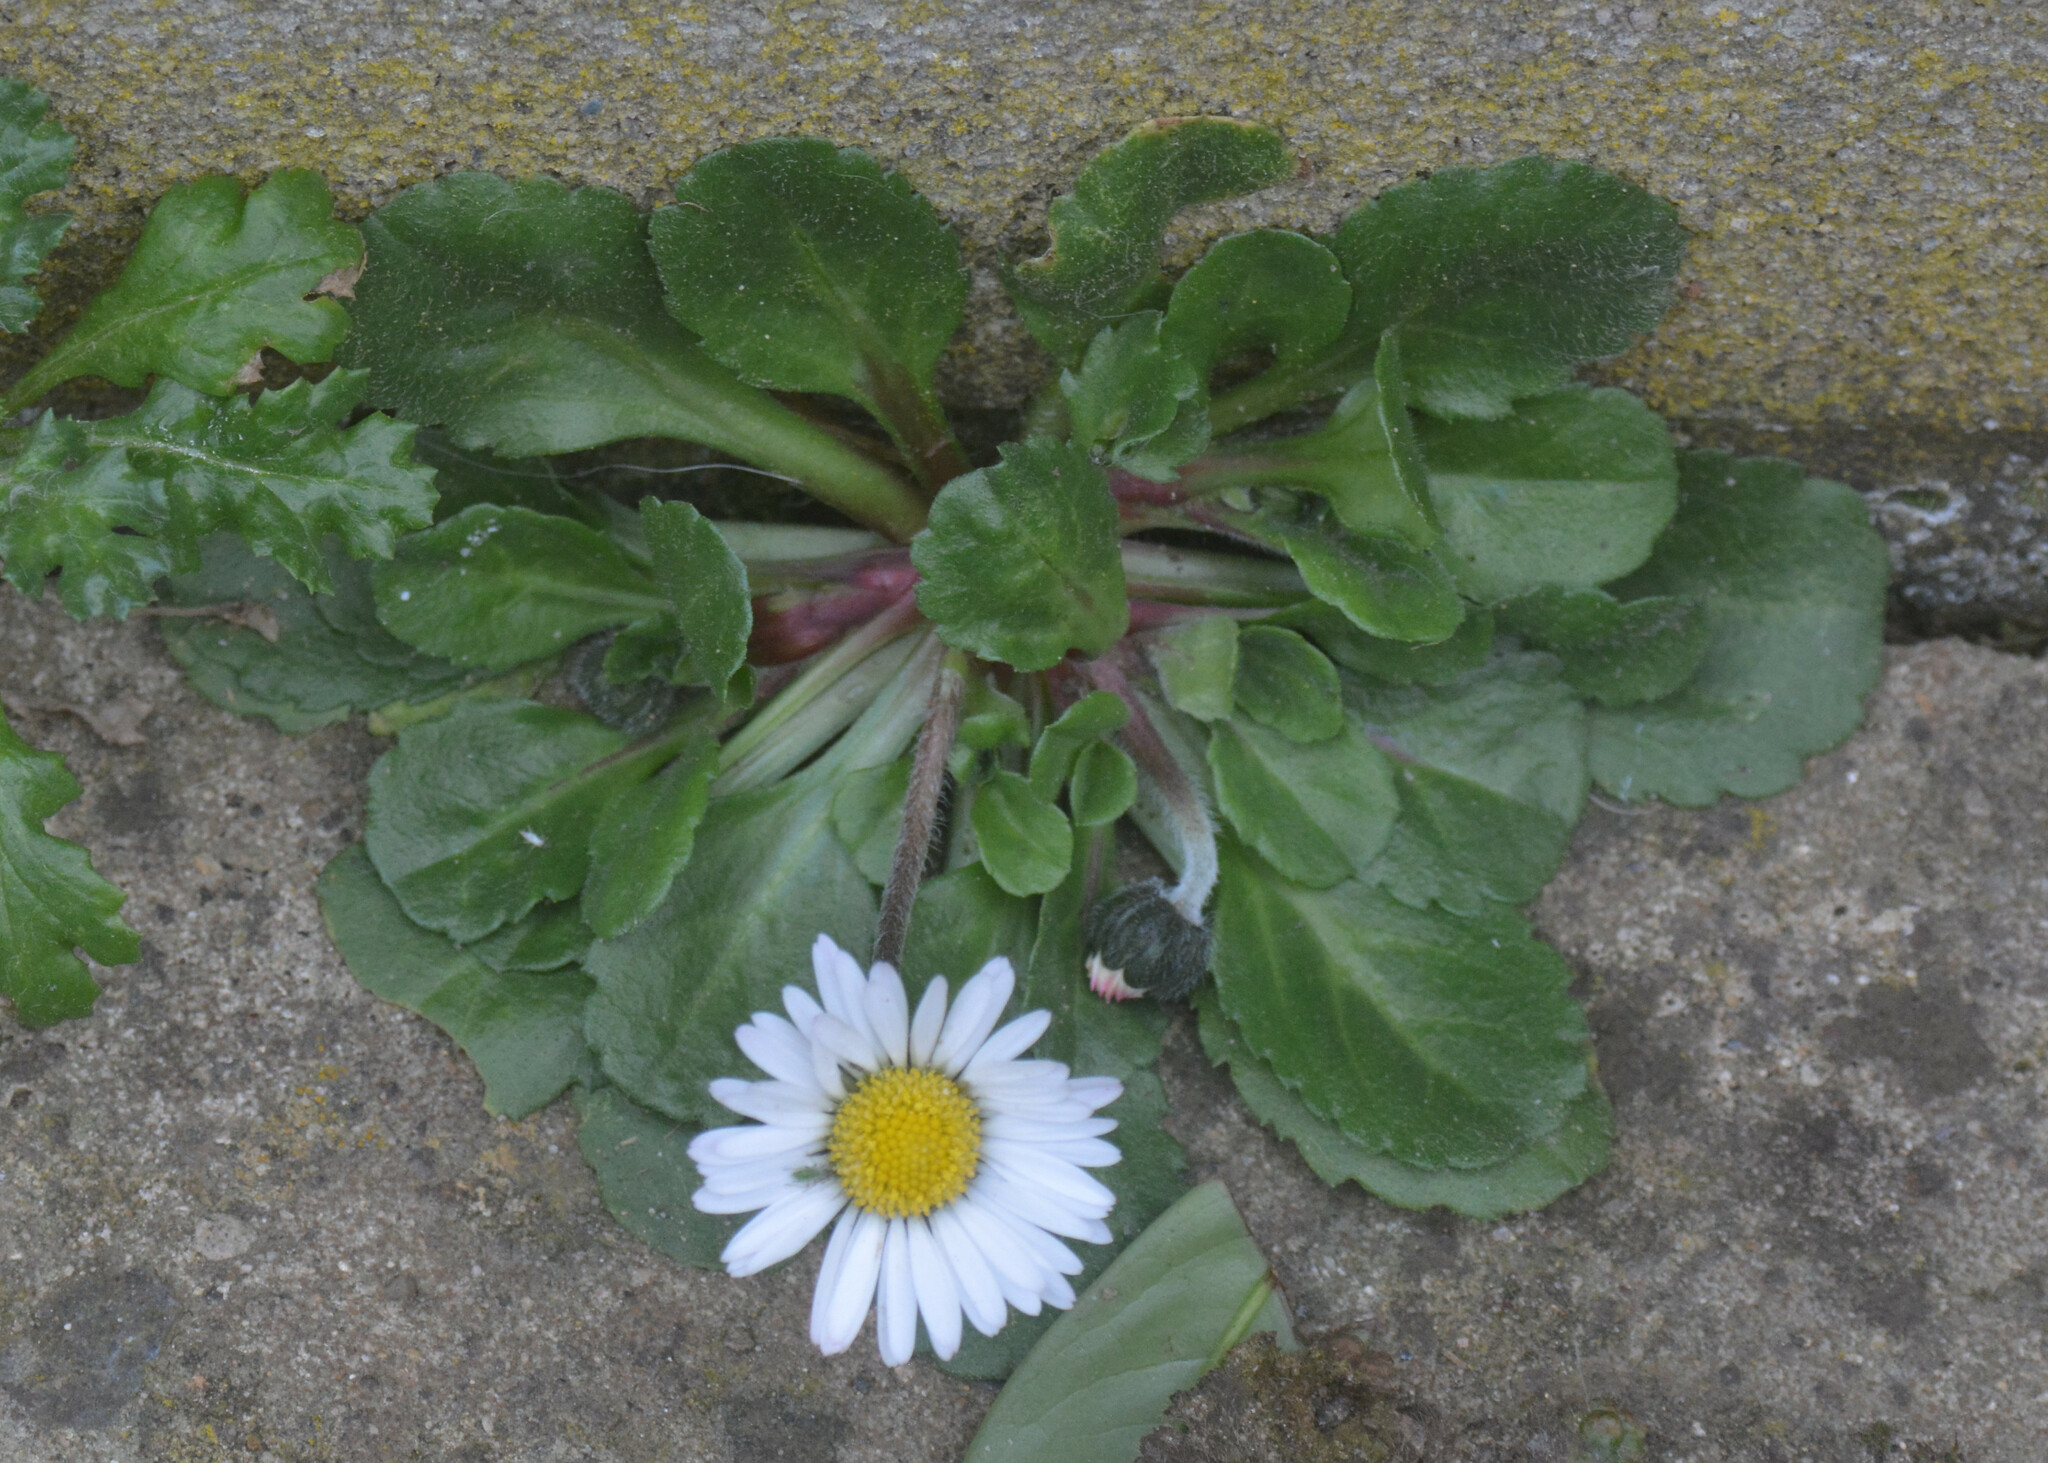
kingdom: Plantae
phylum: Tracheophyta
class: Magnoliopsida
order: Asterales
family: Asteraceae
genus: Bellis
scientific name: Bellis perennis
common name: Lawndaisy
